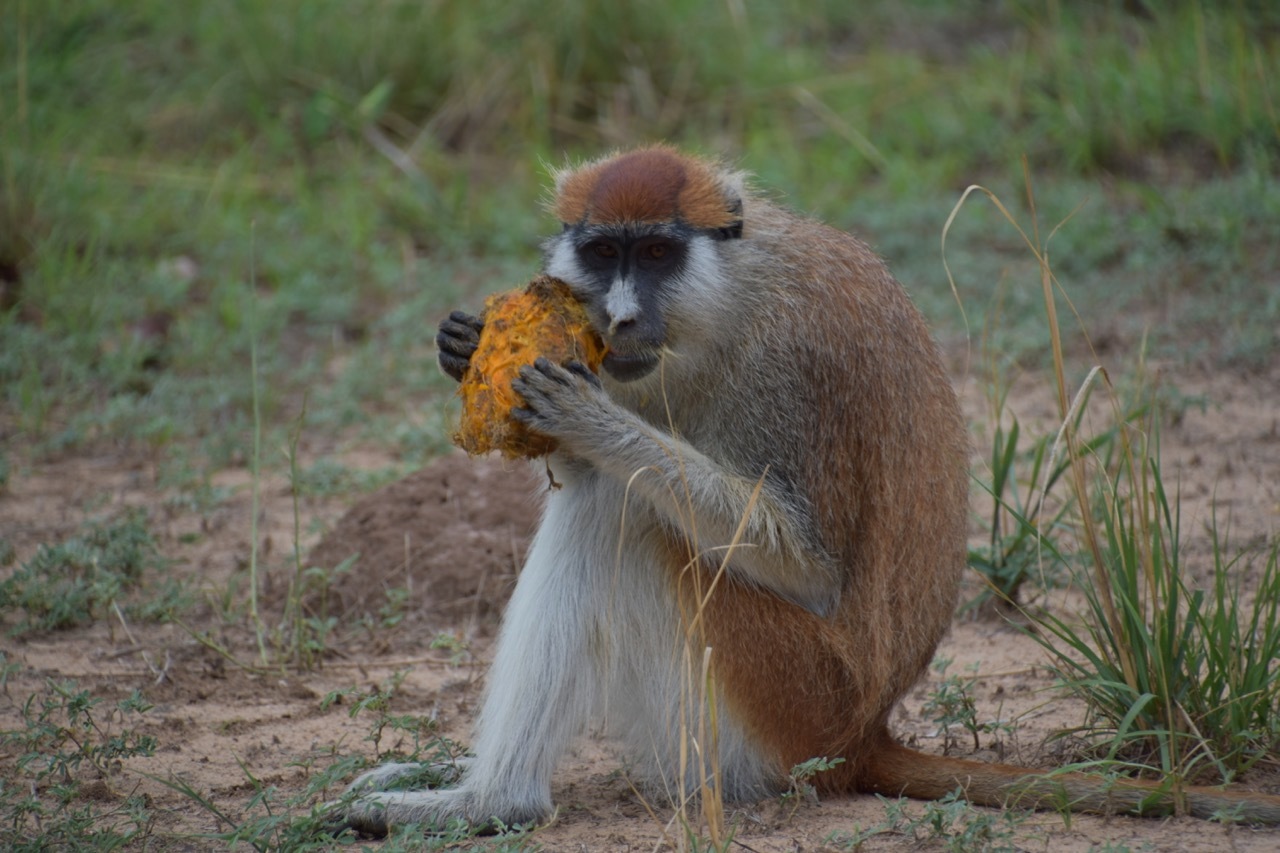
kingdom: Animalia
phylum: Chordata
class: Mammalia
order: Primates
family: Cercopithecidae
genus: Erythrocebus
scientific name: Erythrocebus patas
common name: Patas monkey
